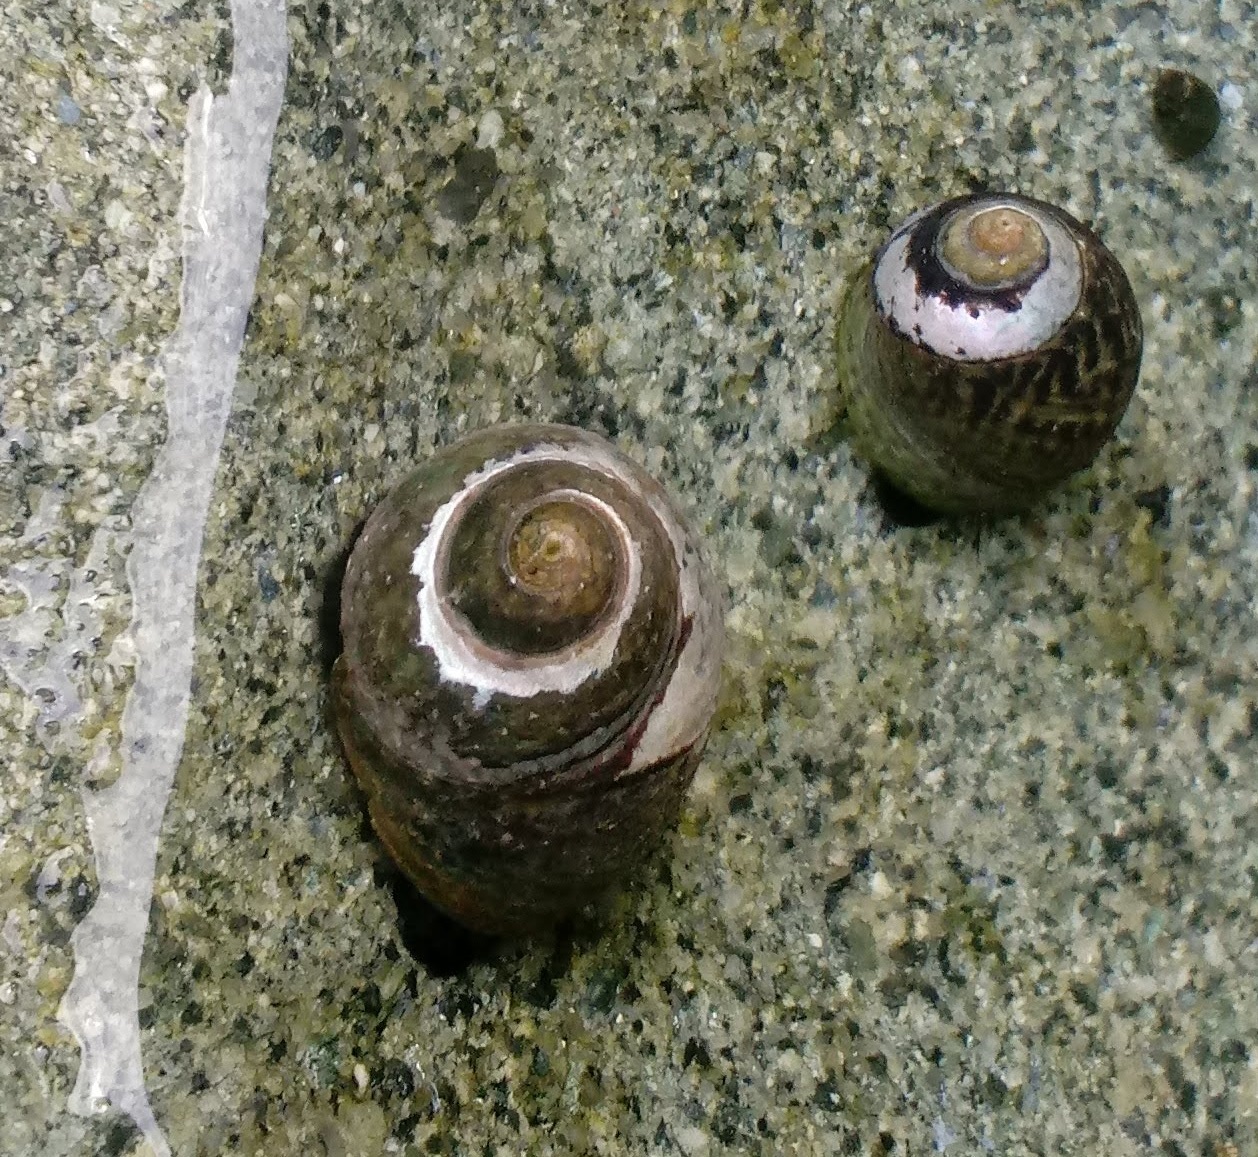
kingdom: Animalia
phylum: Mollusca
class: Gastropoda
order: Trochida
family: Tegulidae
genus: Tegula
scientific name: Tegula gallina
